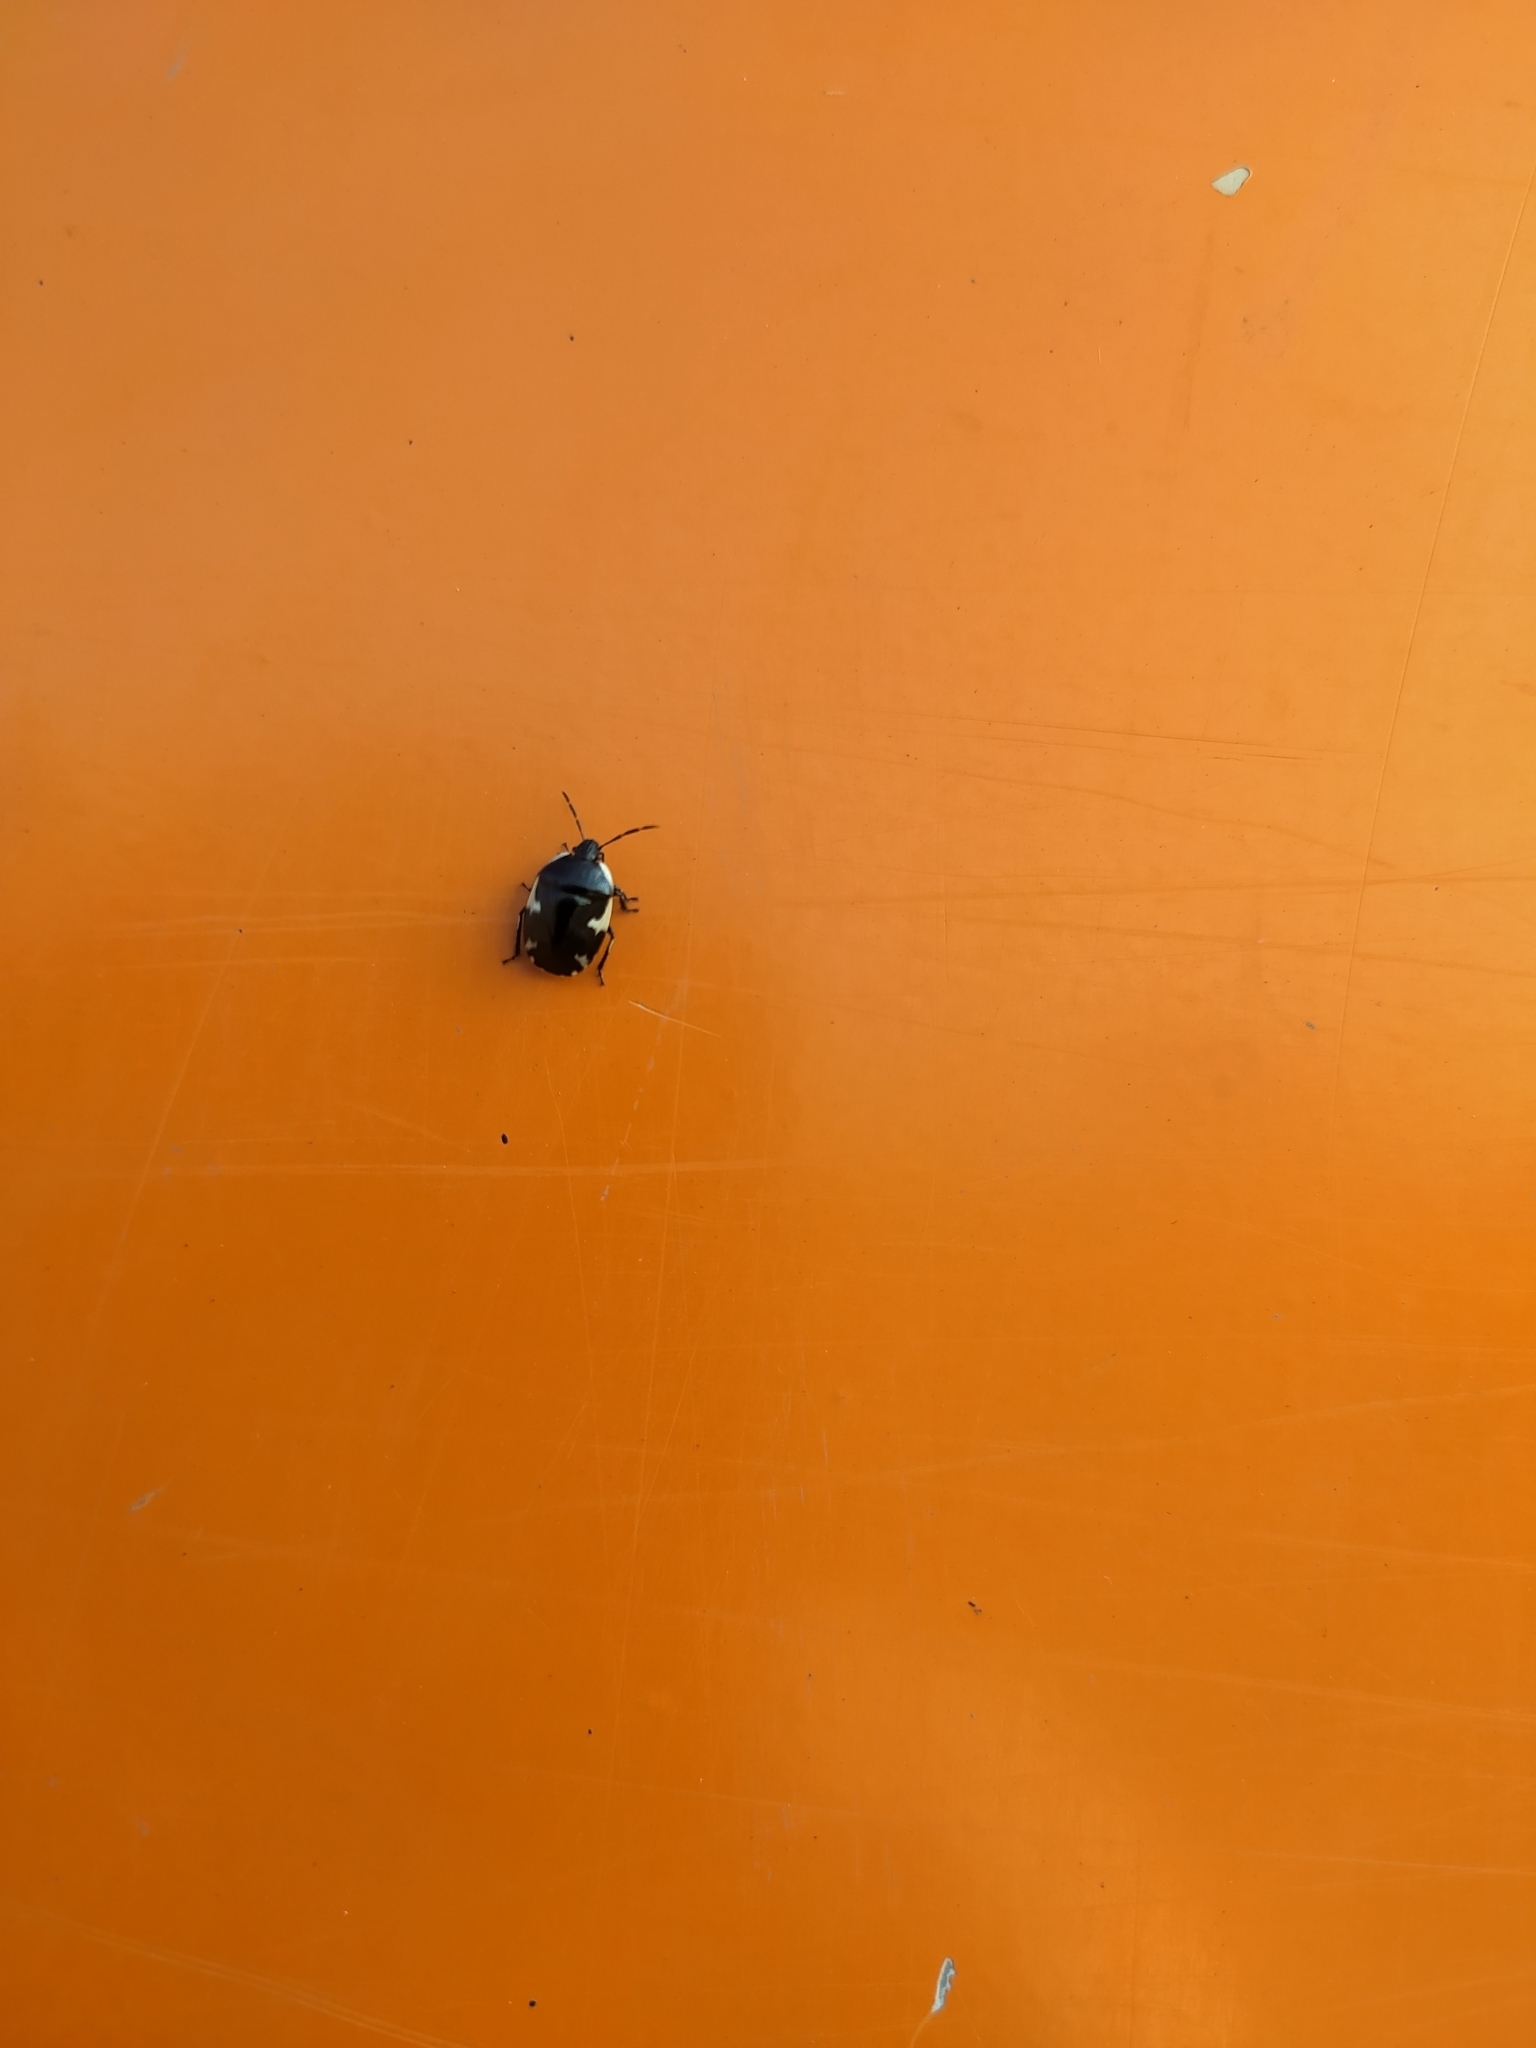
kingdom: Animalia
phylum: Arthropoda
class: Insecta
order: Hemiptera
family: Cydnidae
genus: Tritomegas
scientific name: Tritomegas sexmaculatus
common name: Rambur's pied shieldbug
